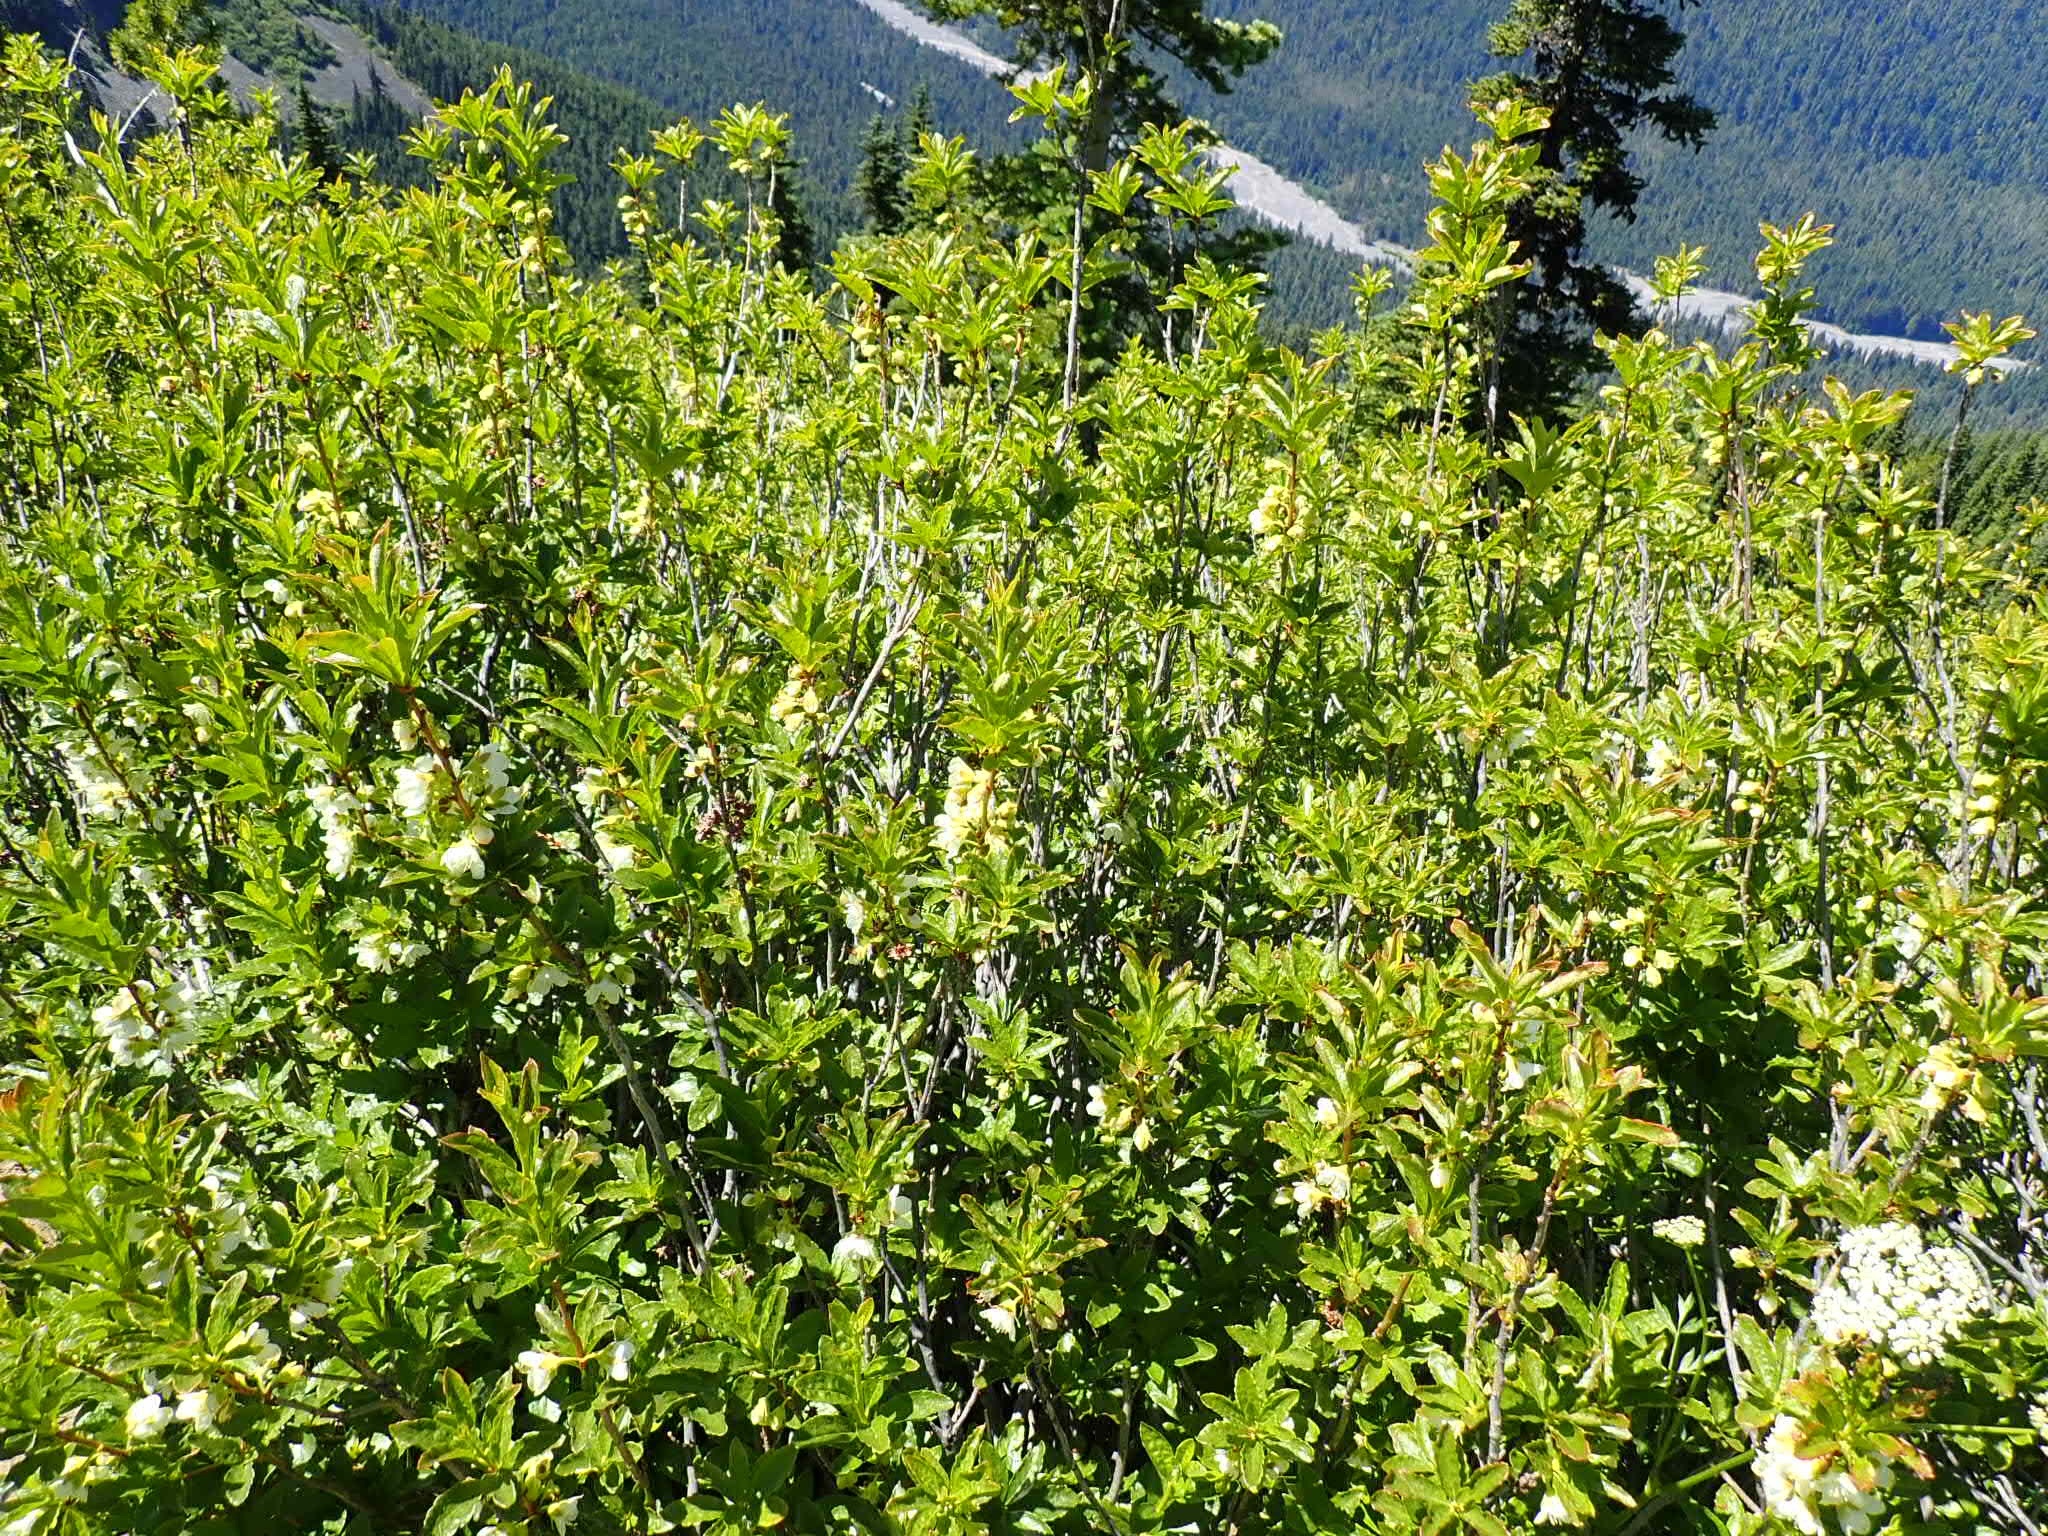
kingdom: Plantae
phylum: Tracheophyta
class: Magnoliopsida
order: Ericales
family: Ericaceae
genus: Rhododendron
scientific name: Rhododendron albiflorum
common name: White rhododendron
